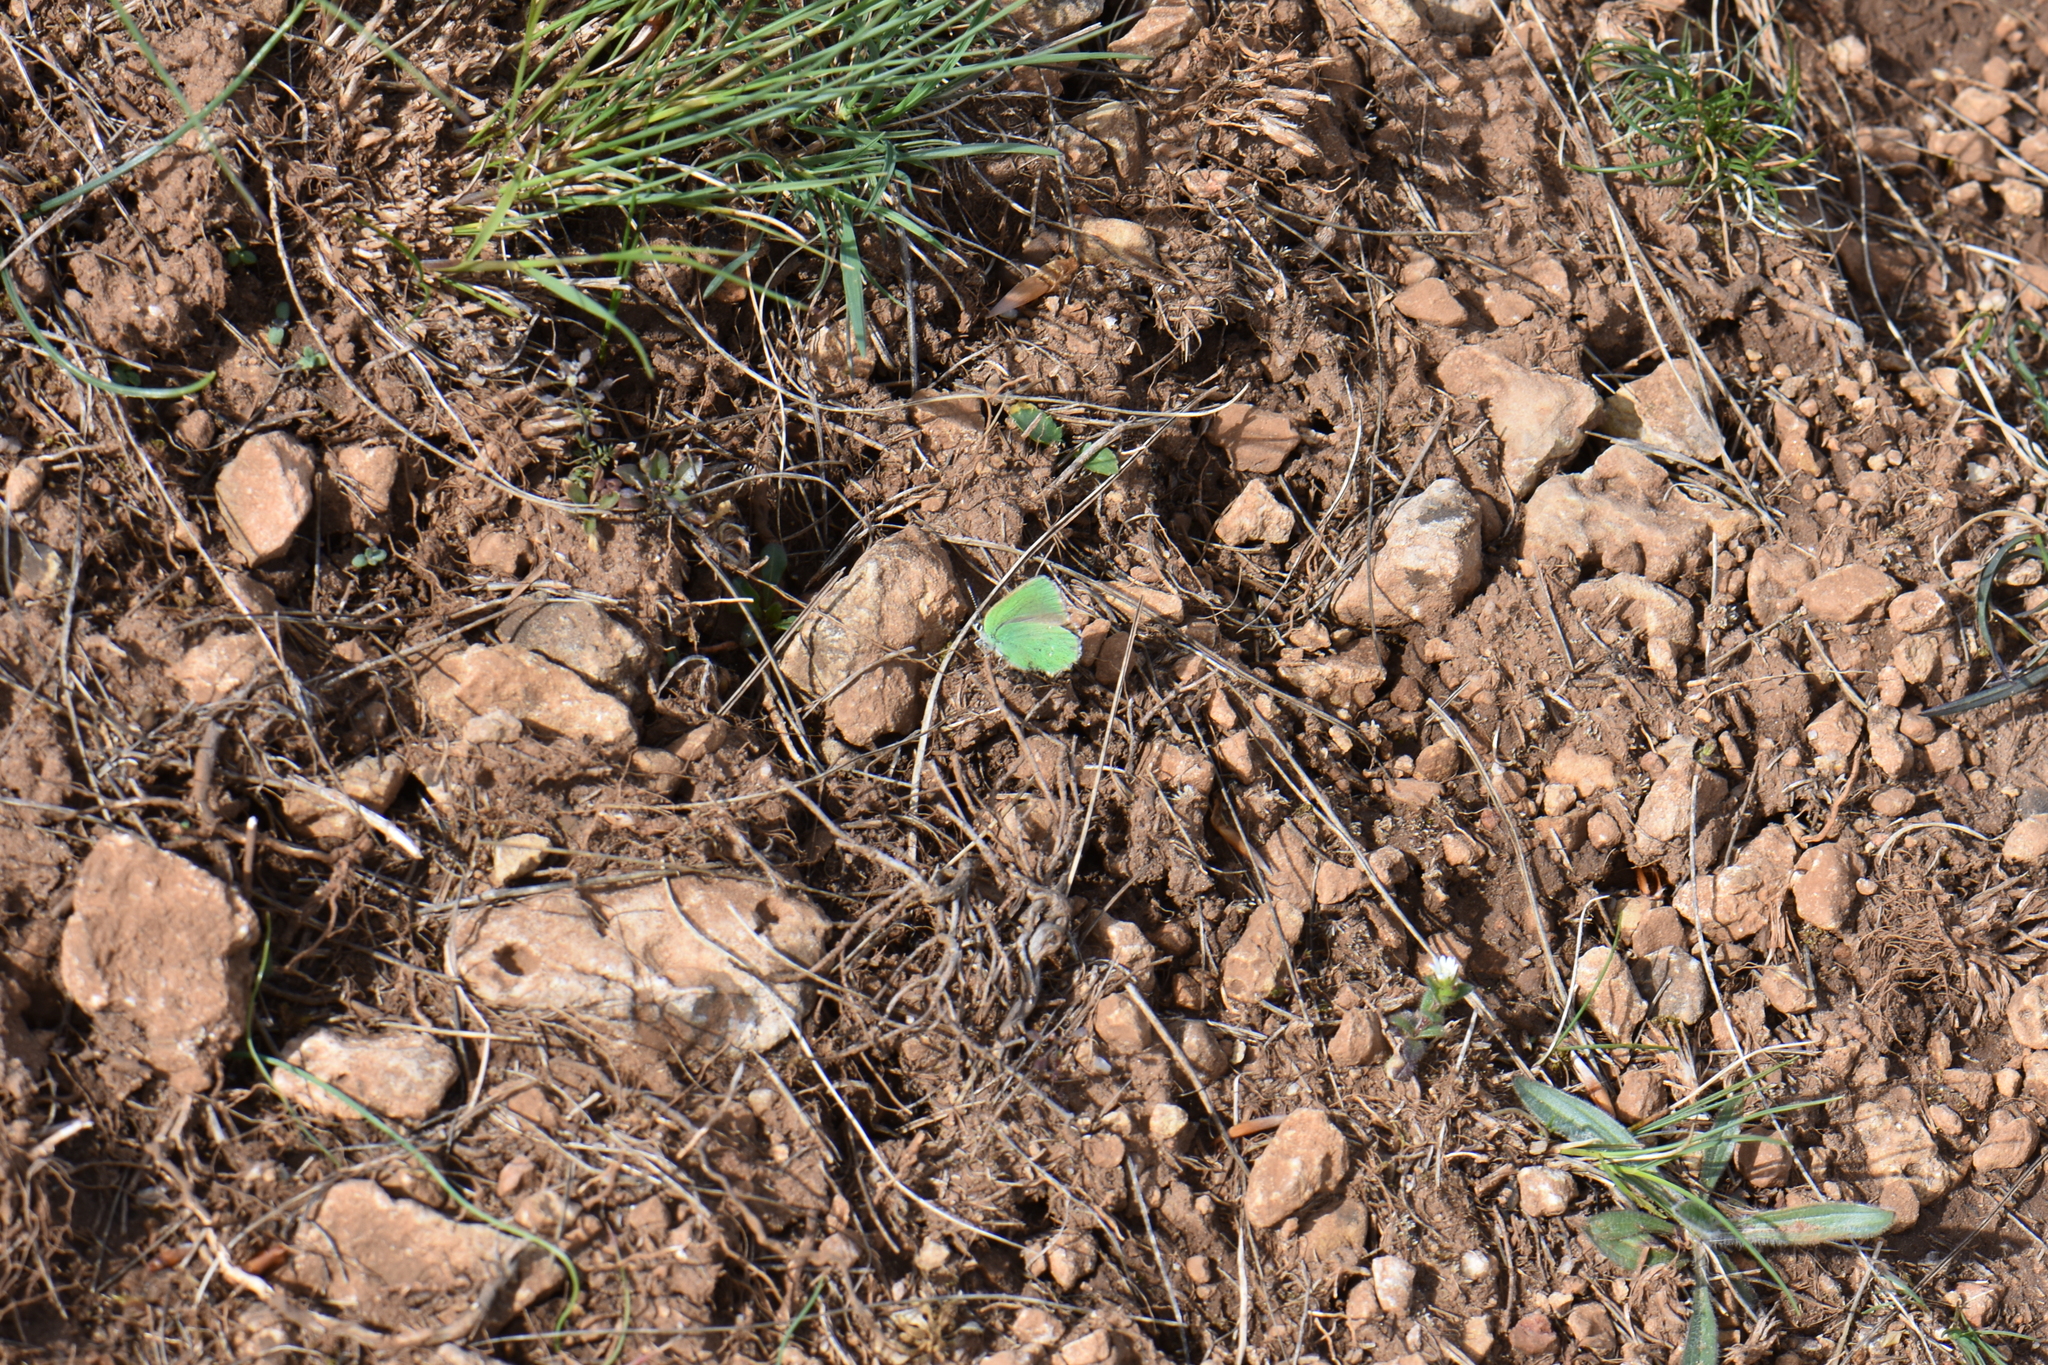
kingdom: Animalia
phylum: Arthropoda
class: Insecta
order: Lepidoptera
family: Lycaenidae
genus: Callophrys
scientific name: Callophrys rubi
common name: Green hairstreak
